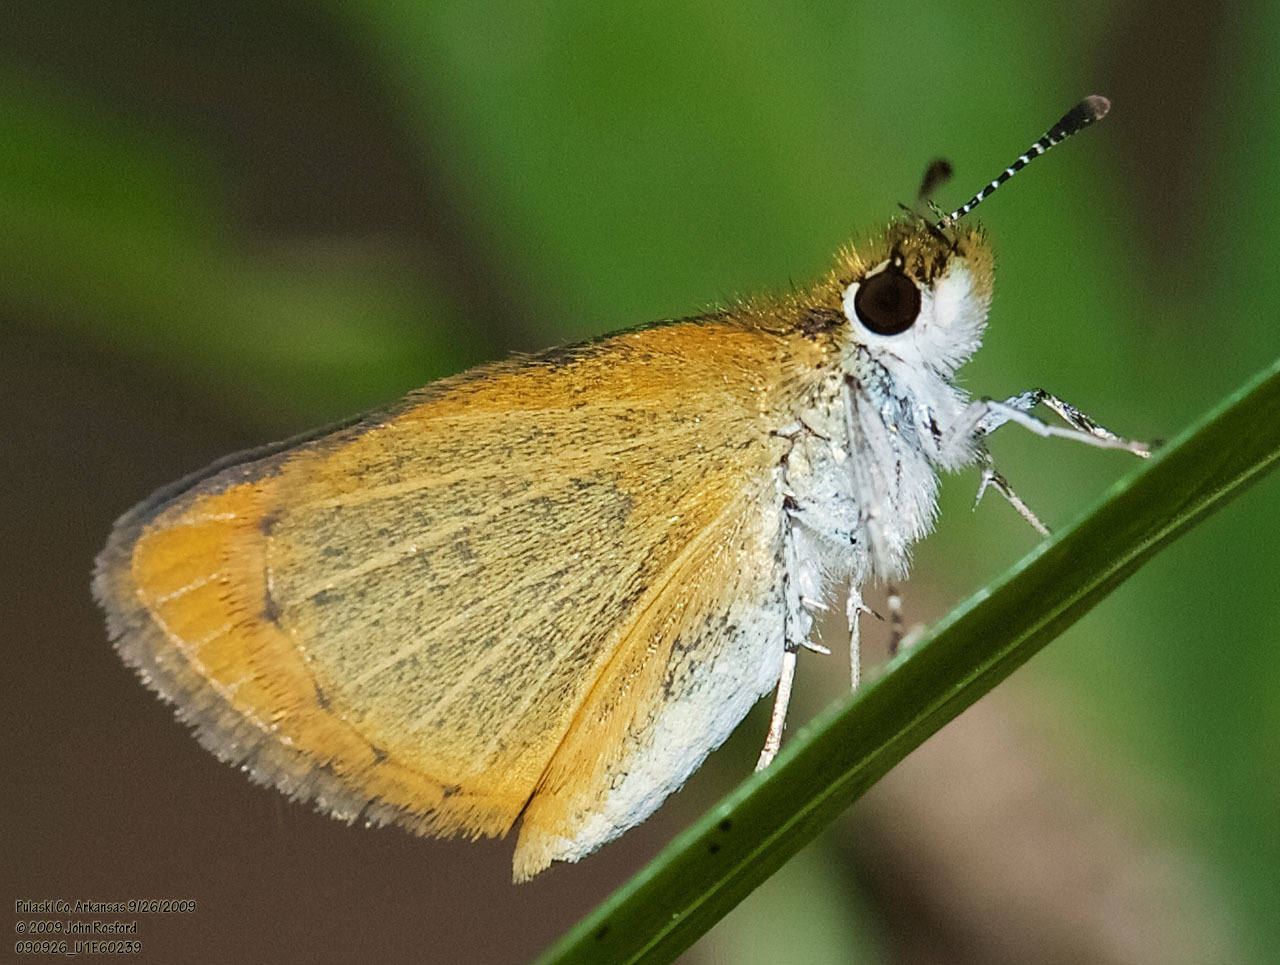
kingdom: Animalia
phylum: Arthropoda
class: Insecta
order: Lepidoptera
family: Hesperiidae
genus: Ancyloxypha
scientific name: Ancyloxypha numitor
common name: Least skipper
